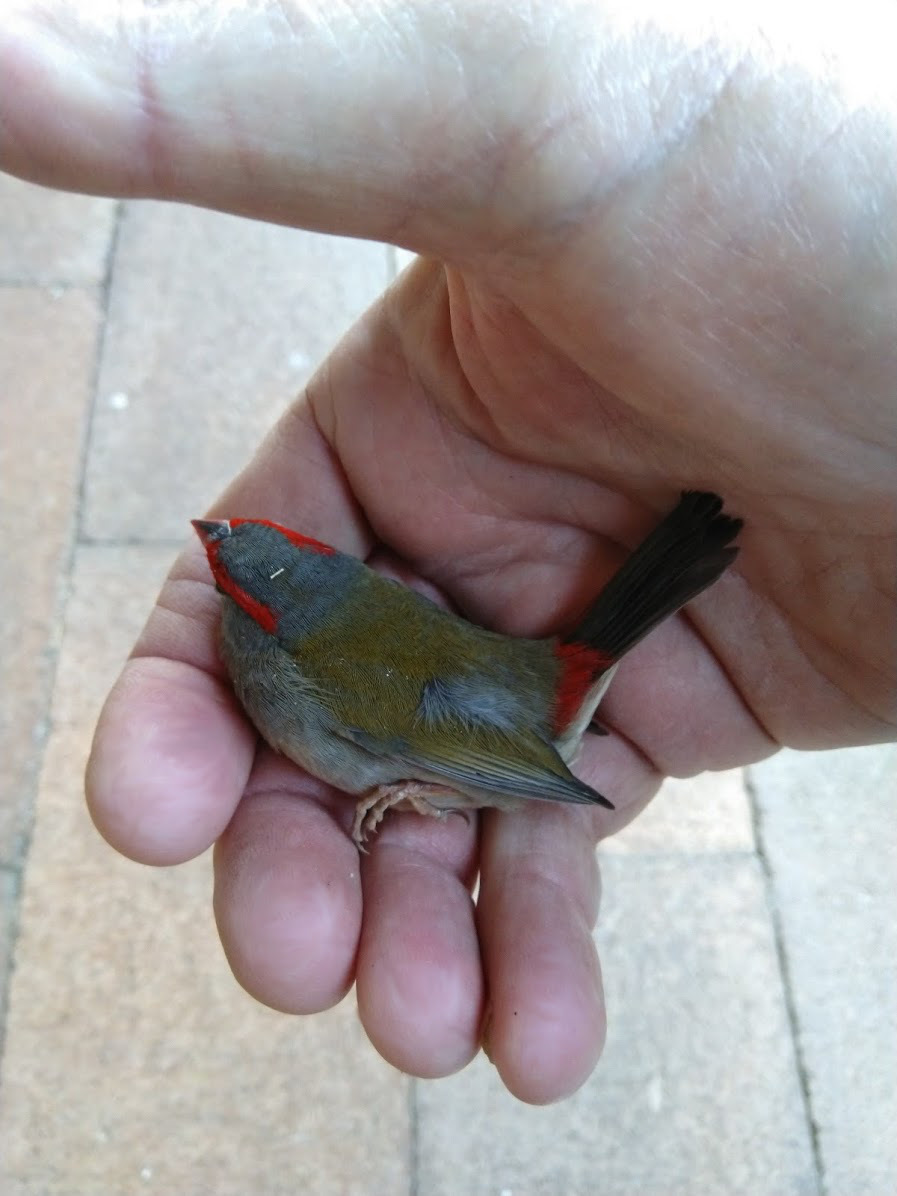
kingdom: Animalia
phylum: Chordata
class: Aves
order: Passeriformes
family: Estrildidae
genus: Neochmia
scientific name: Neochmia temporalis
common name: Red-browed finch
